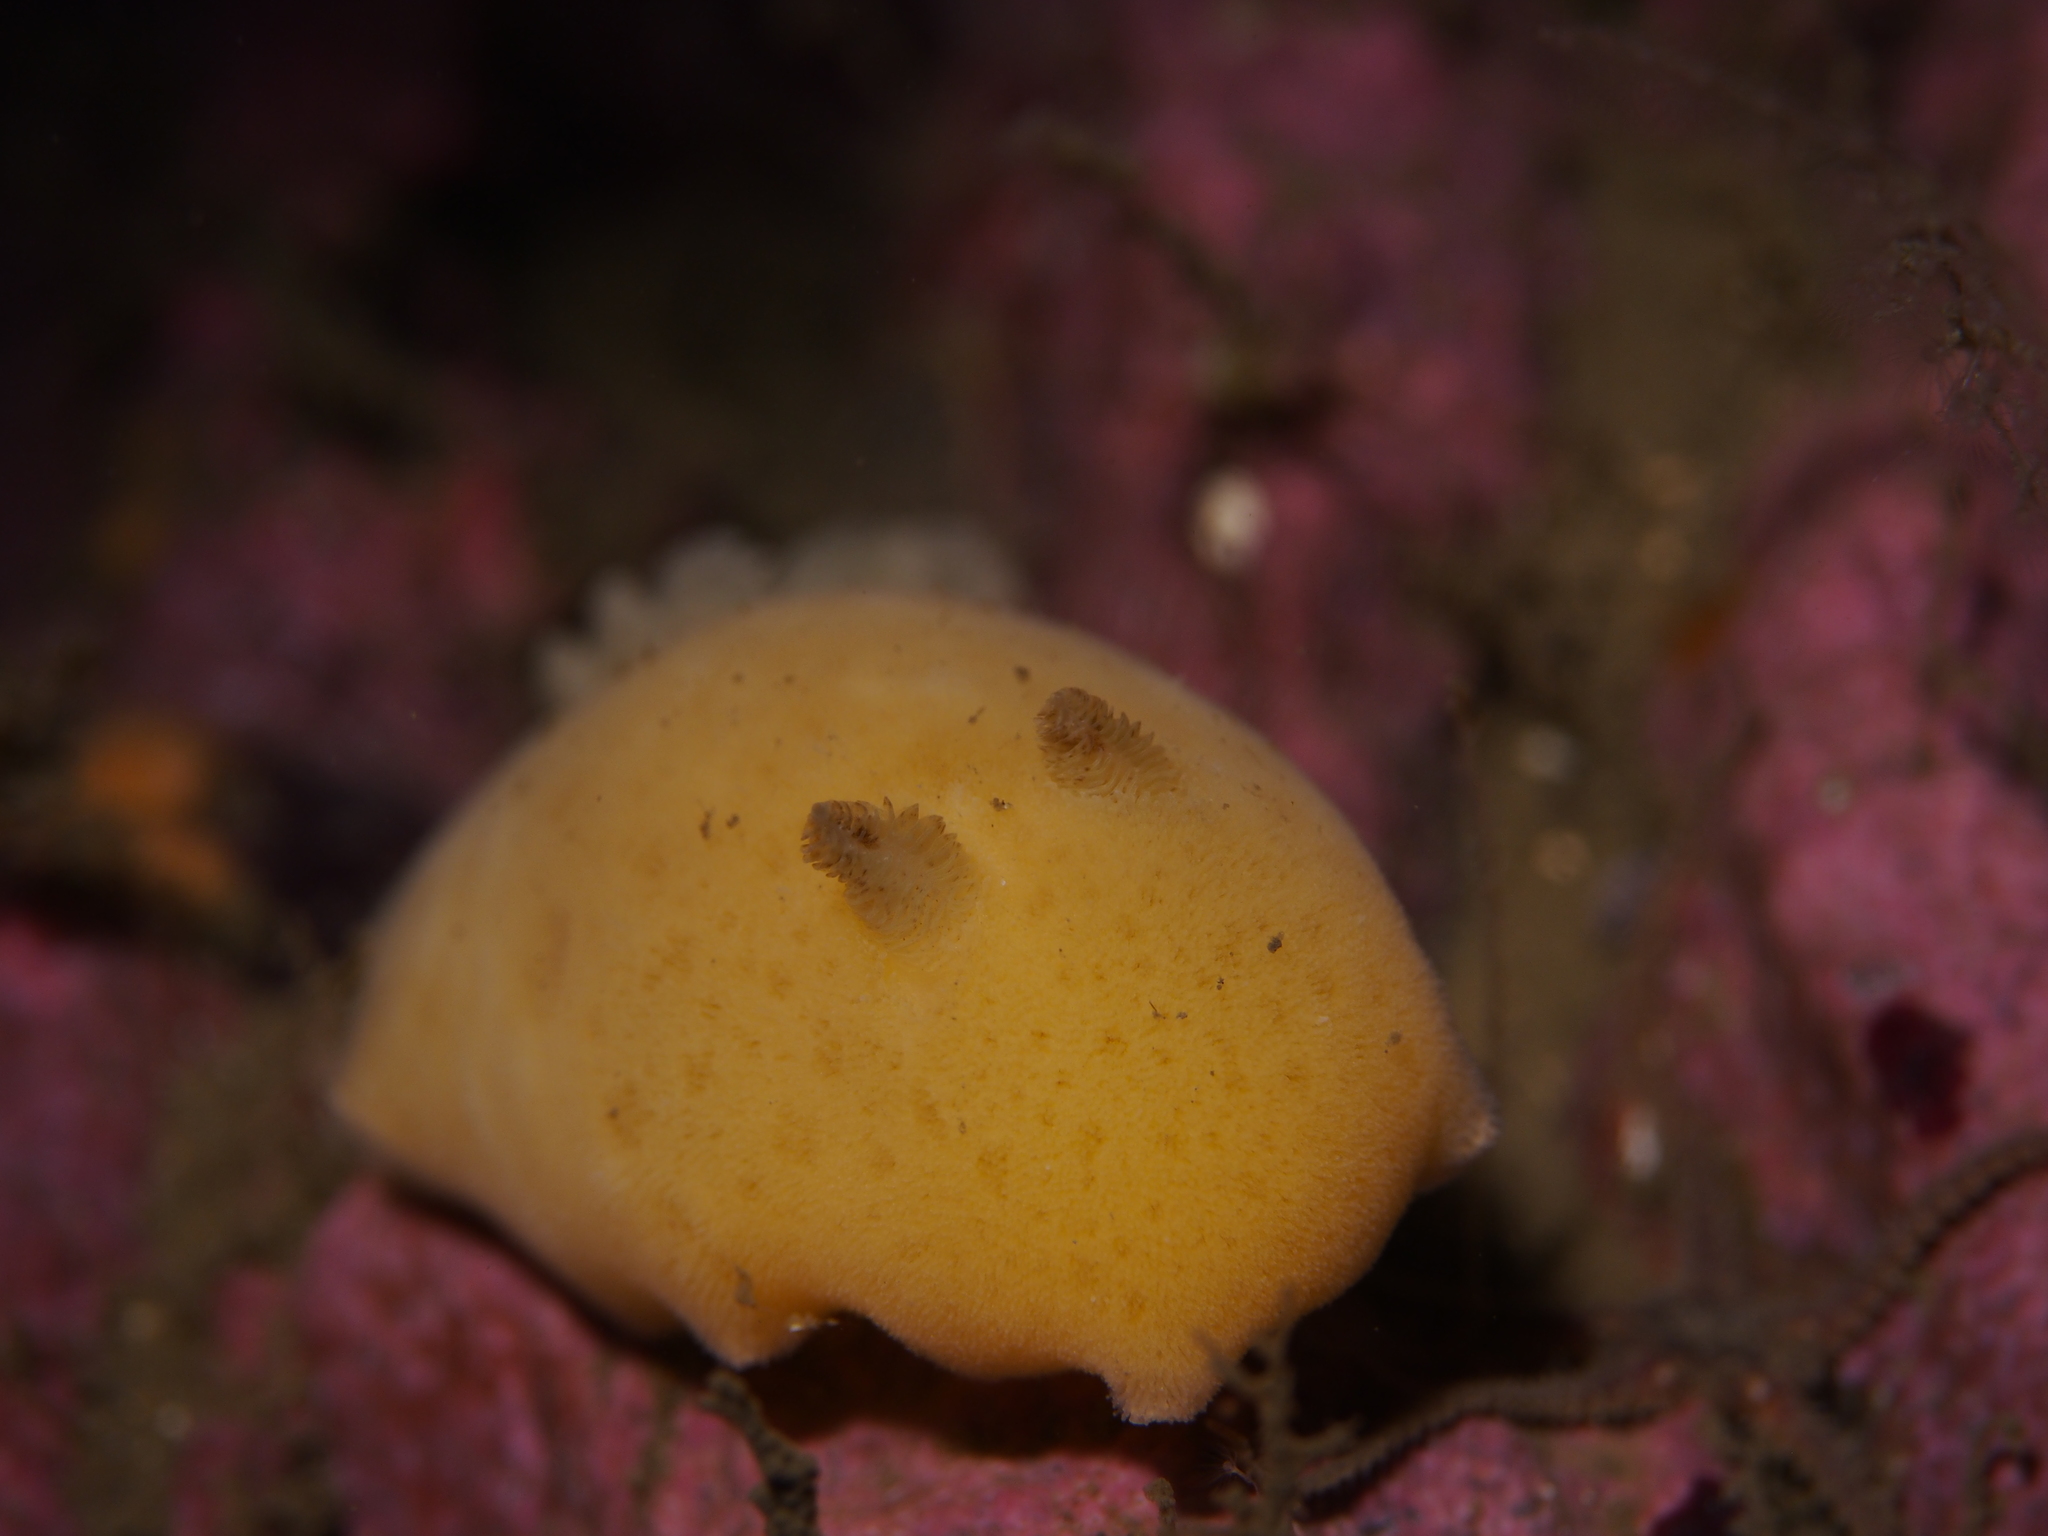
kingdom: Animalia
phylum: Mollusca
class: Gastropoda
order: Nudibranchia
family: Discodorididae
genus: Jorunna
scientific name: Jorunna tomentosa
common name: Grey sea slug
